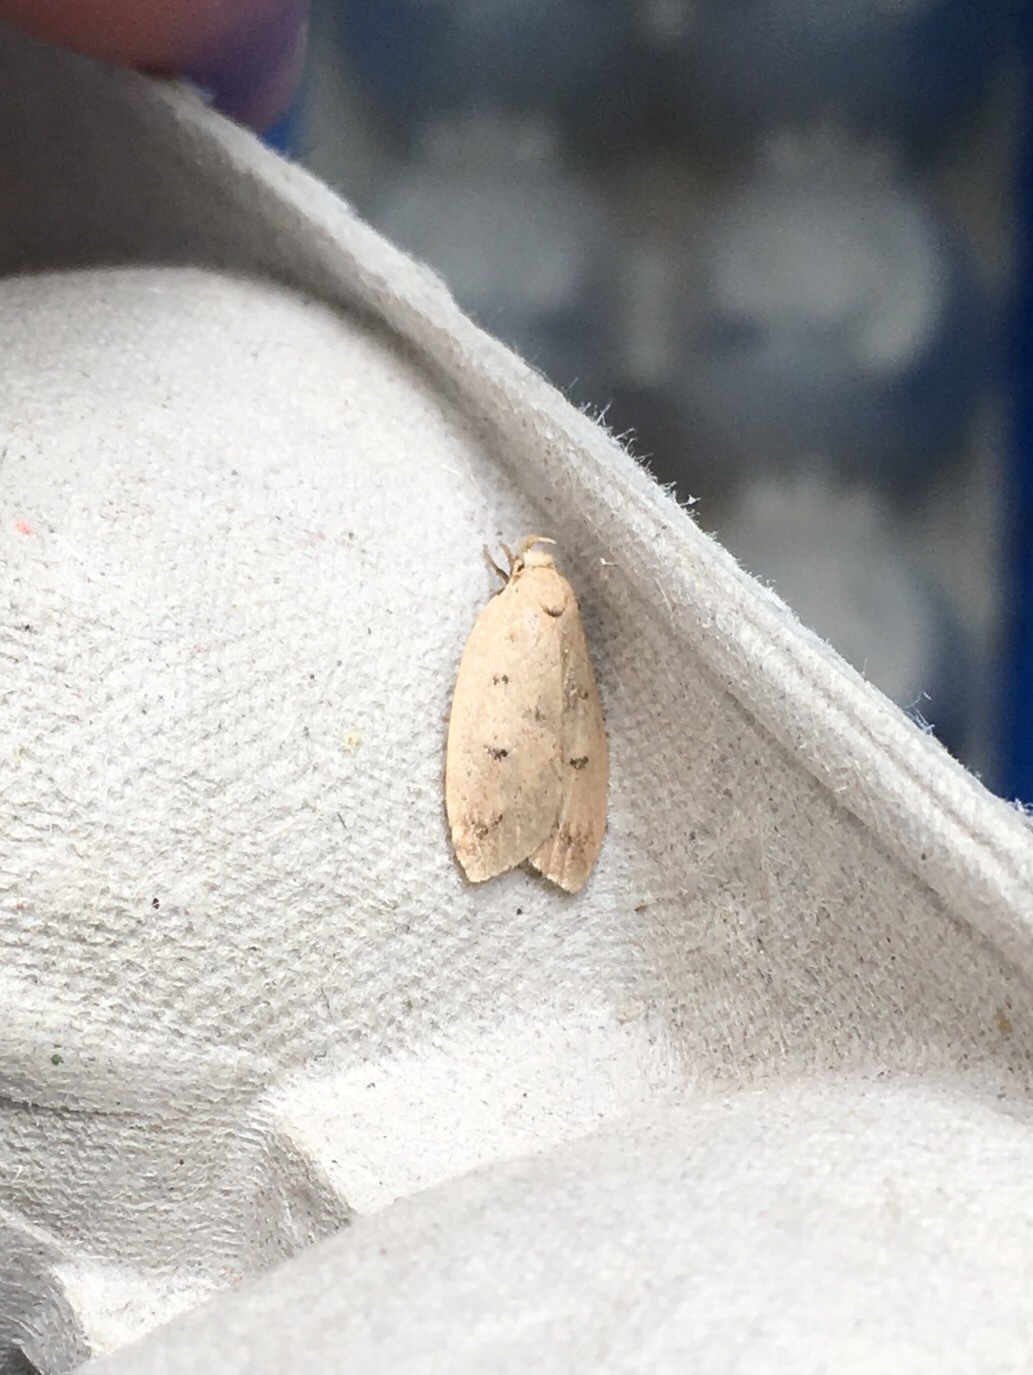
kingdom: Animalia
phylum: Arthropoda
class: Insecta
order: Lepidoptera
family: Peleopodidae
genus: Machimia
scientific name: Machimia tentoriferella
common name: Gold-striped leaftier moth
